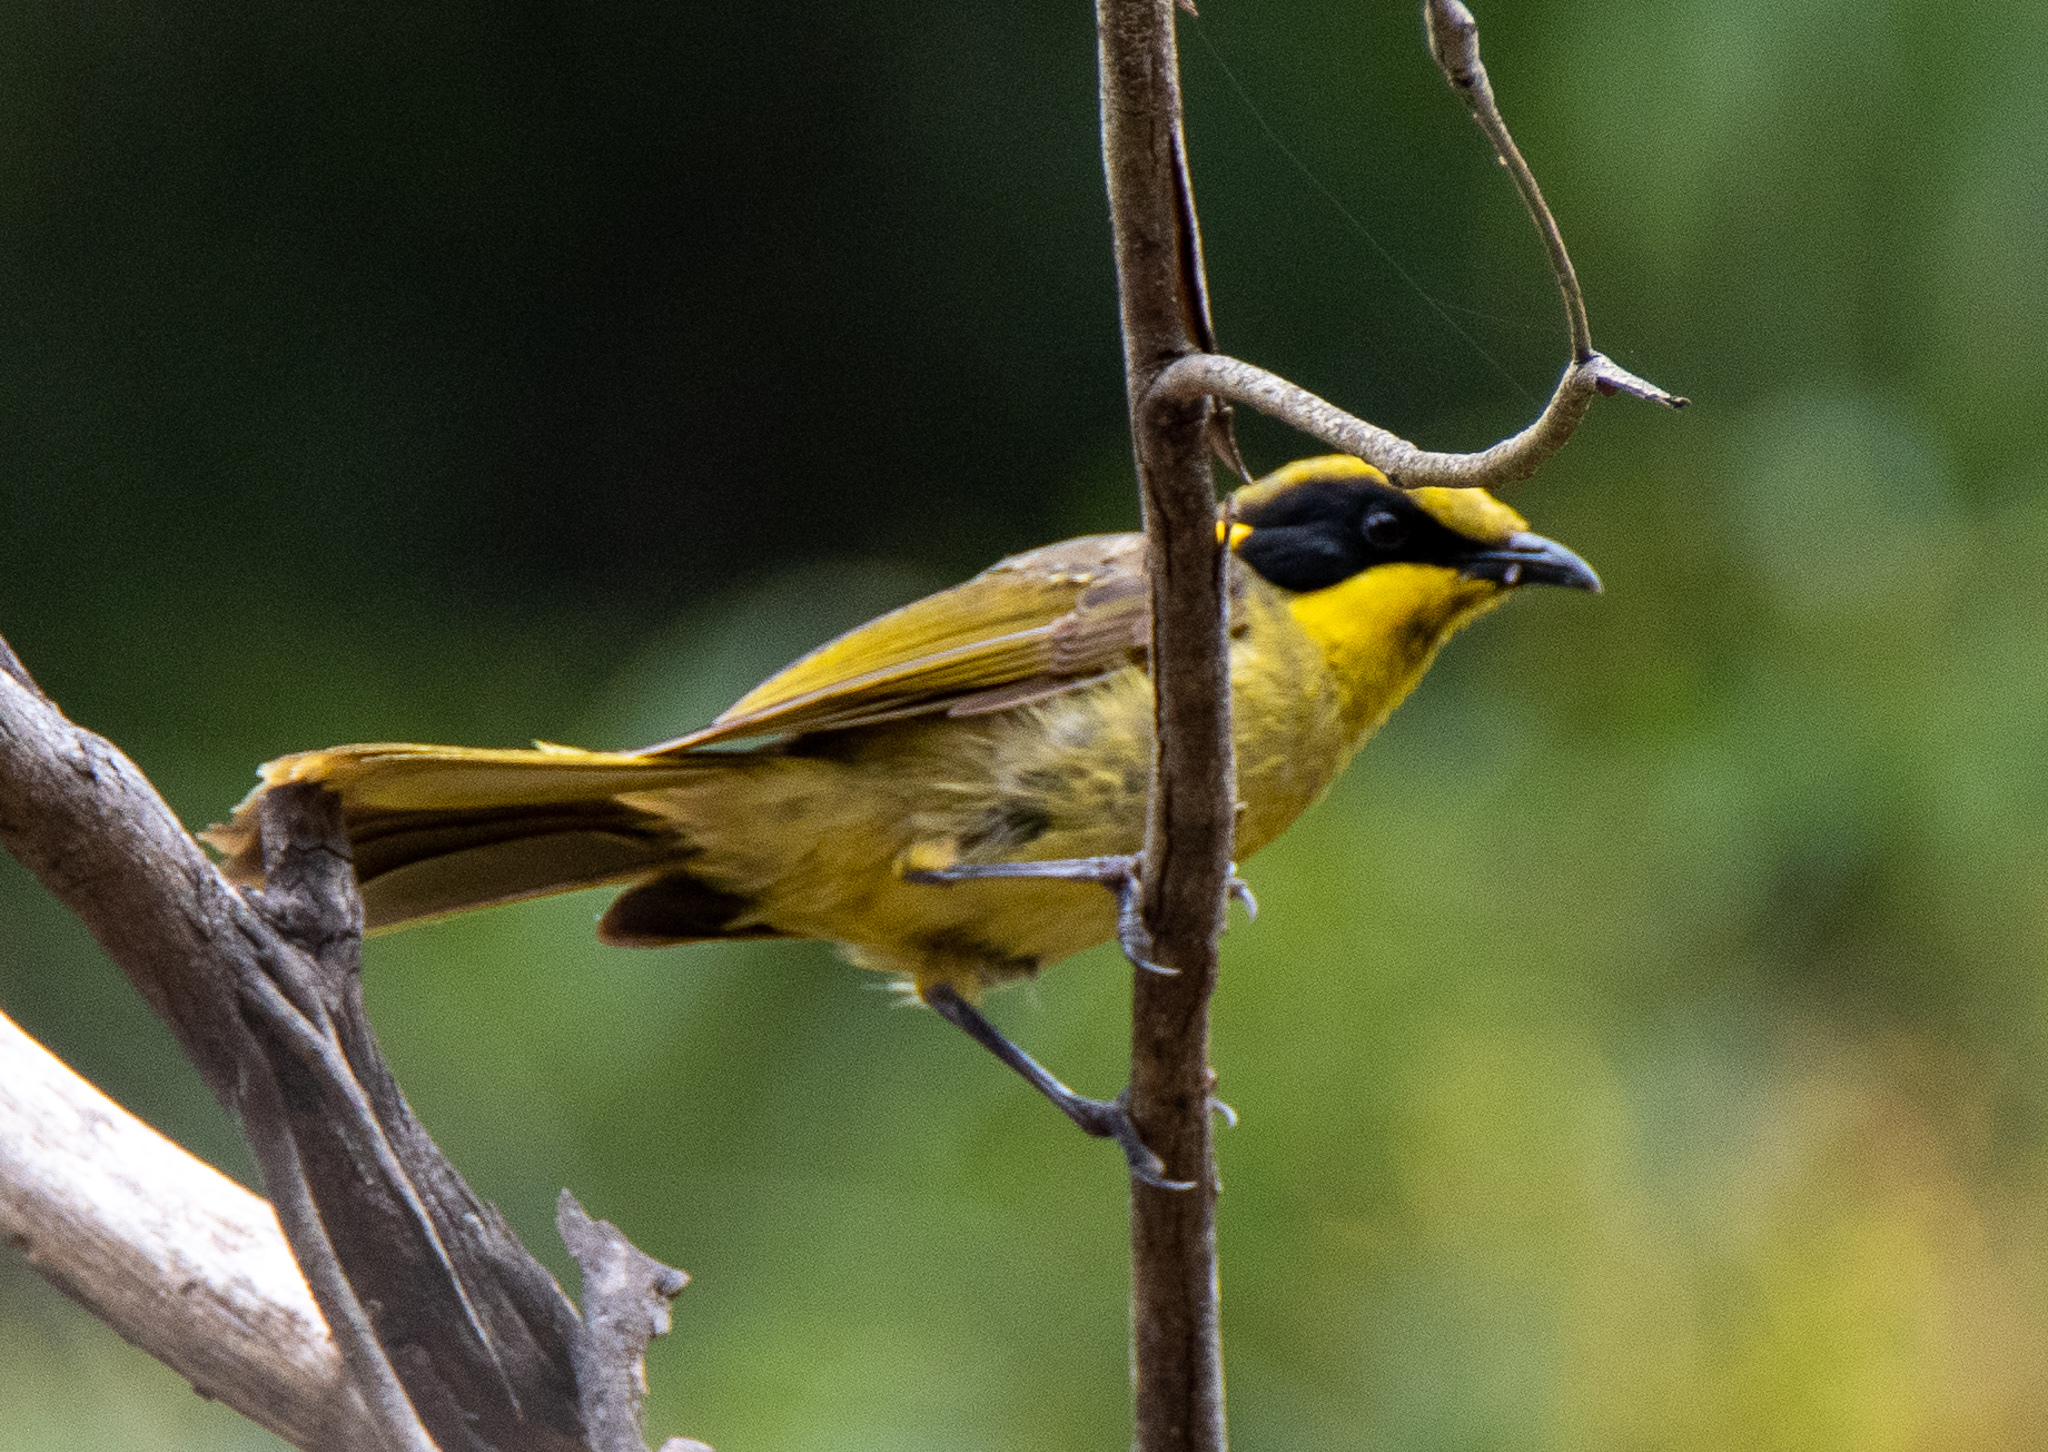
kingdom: Animalia
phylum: Chordata
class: Aves
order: Passeriformes
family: Meliphagidae
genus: Lichenostomus
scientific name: Lichenostomus melanops
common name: Yellow-tufted honeyeater
